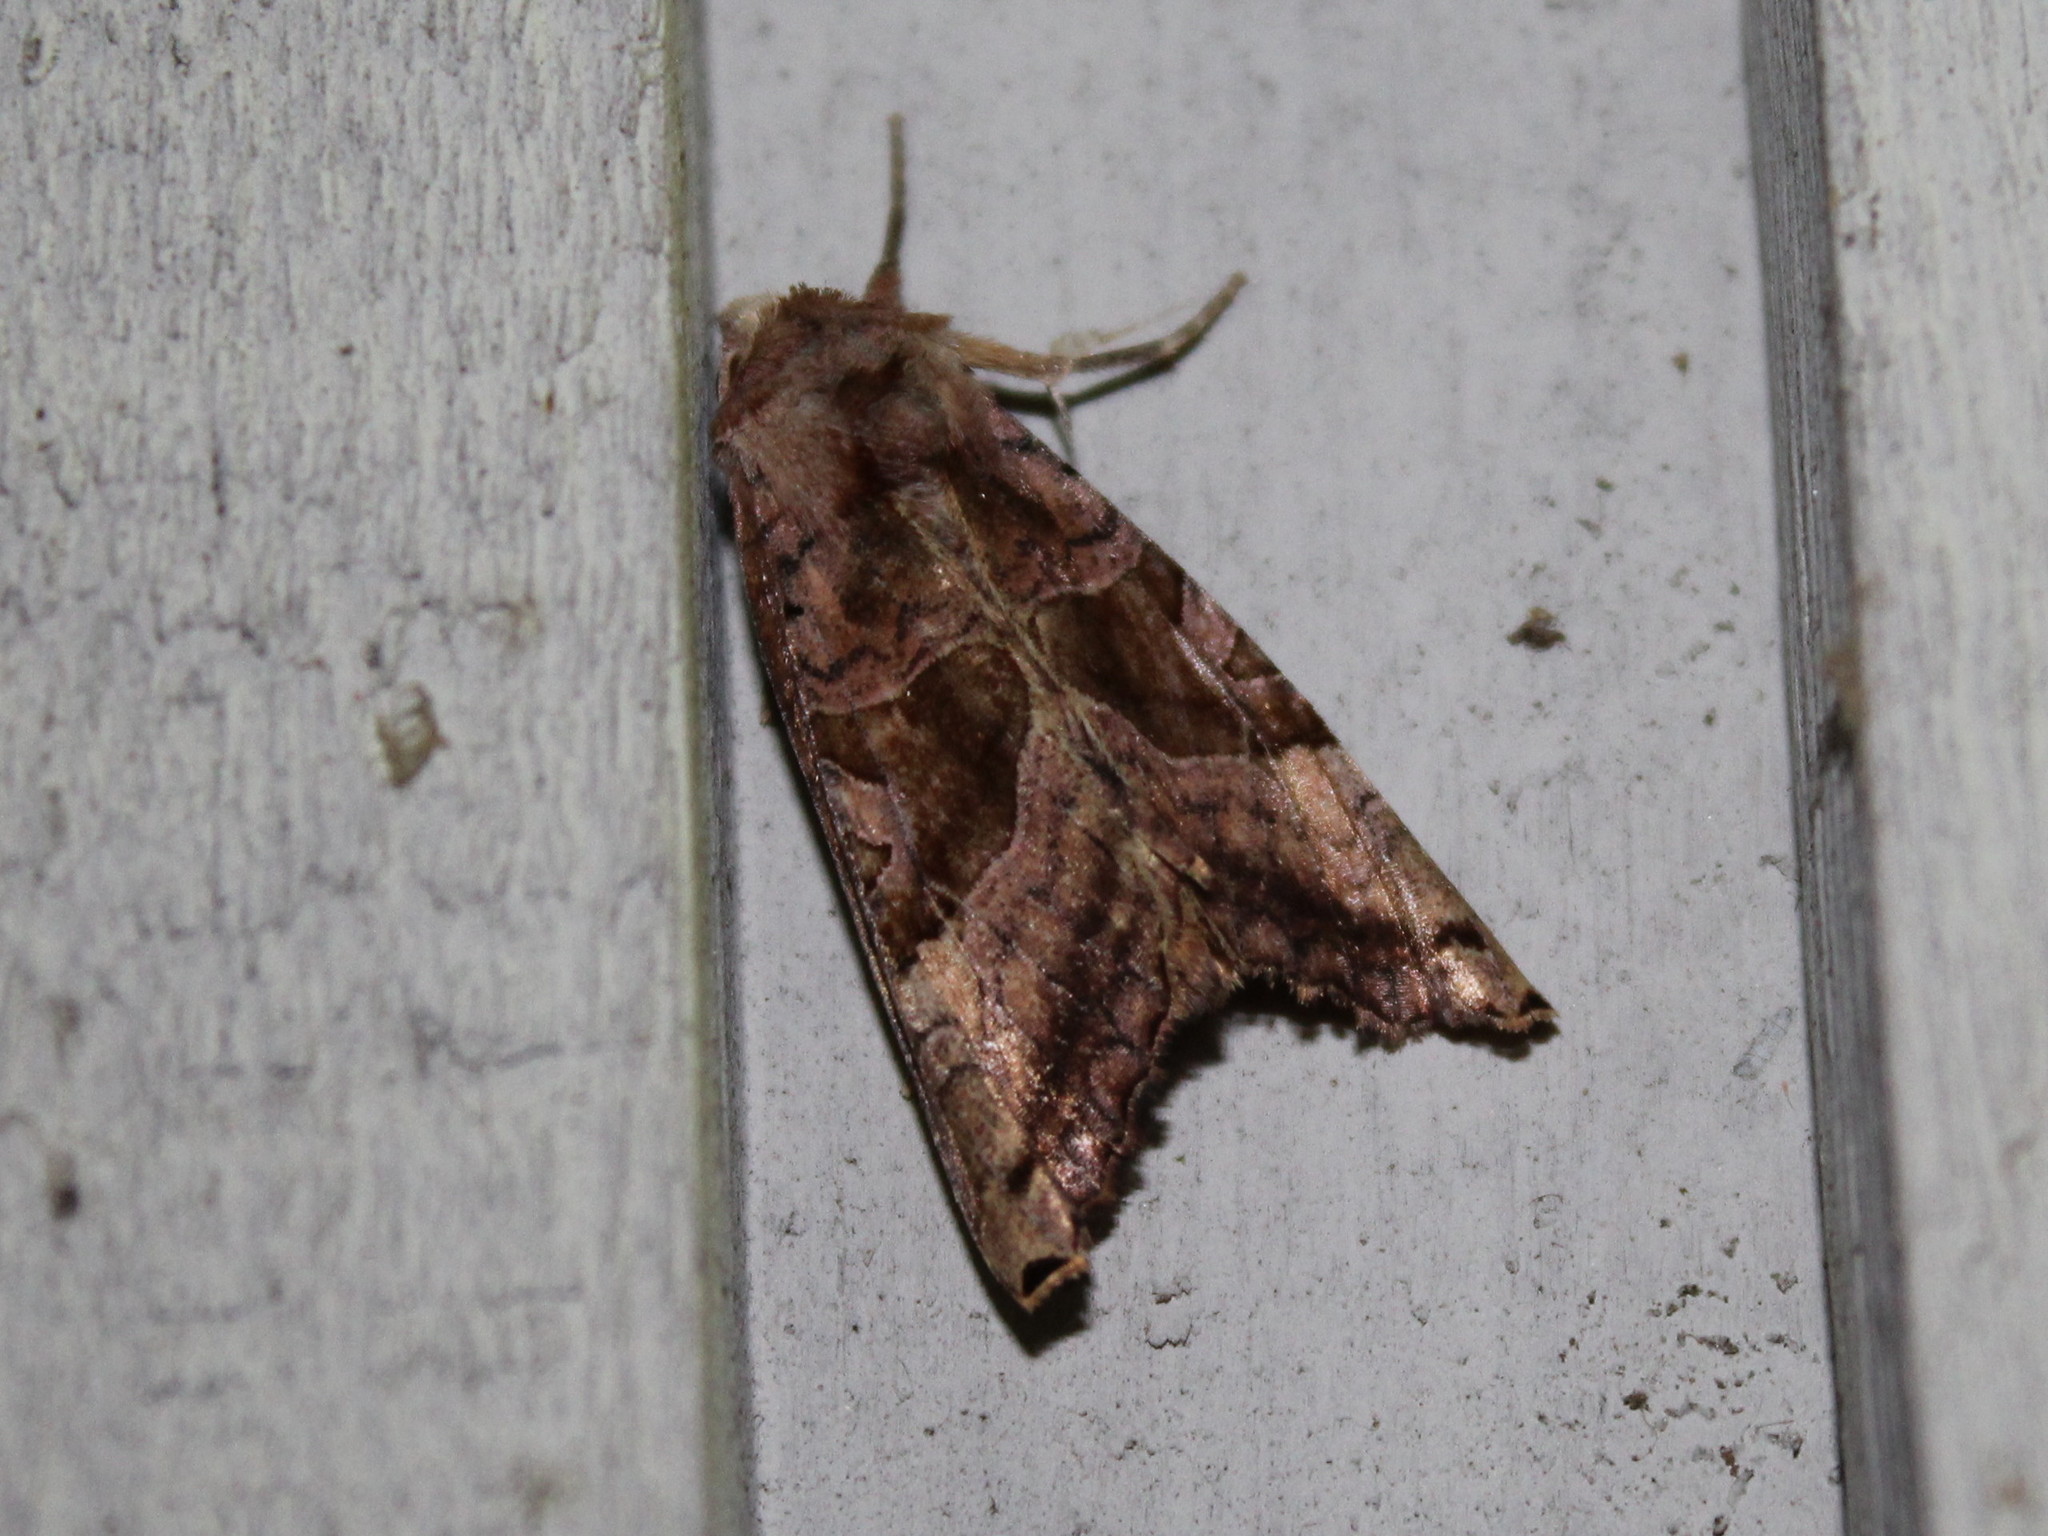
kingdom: Animalia
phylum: Arthropoda
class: Insecta
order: Lepidoptera
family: Noctuidae
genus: Phlogophora
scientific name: Phlogophora periculosa
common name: Brown angle shades
